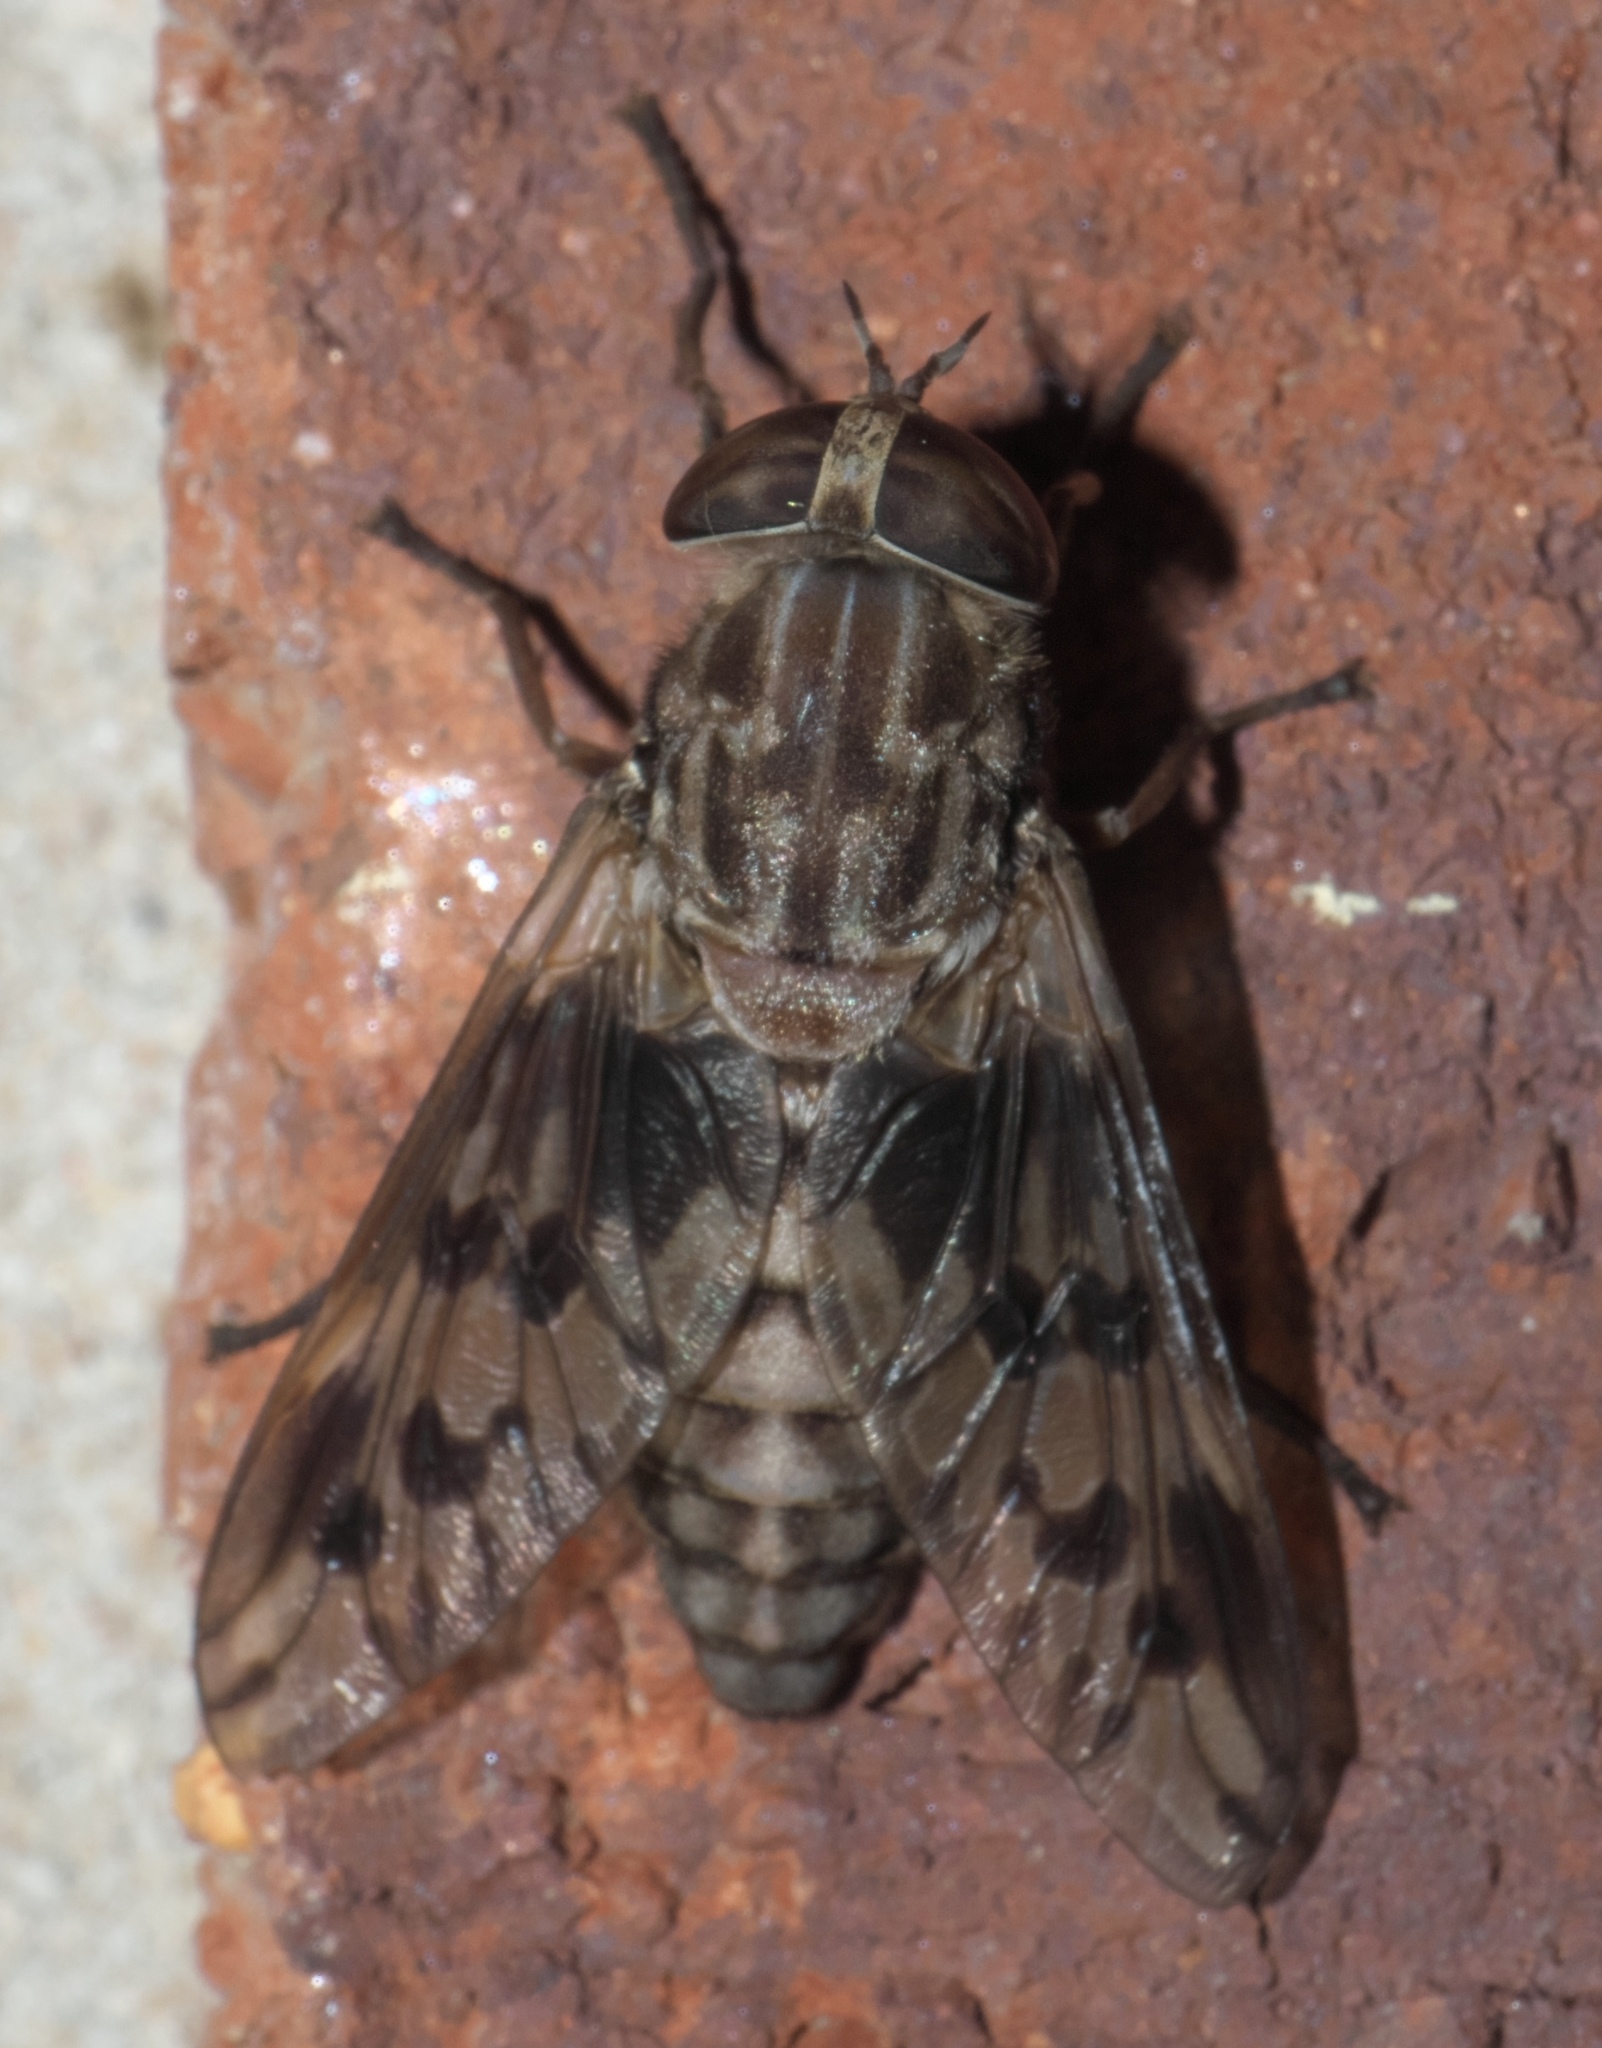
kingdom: Animalia
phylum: Arthropoda
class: Insecta
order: Diptera
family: Tabanidae
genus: Tabanus
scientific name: Tabanus venustus
